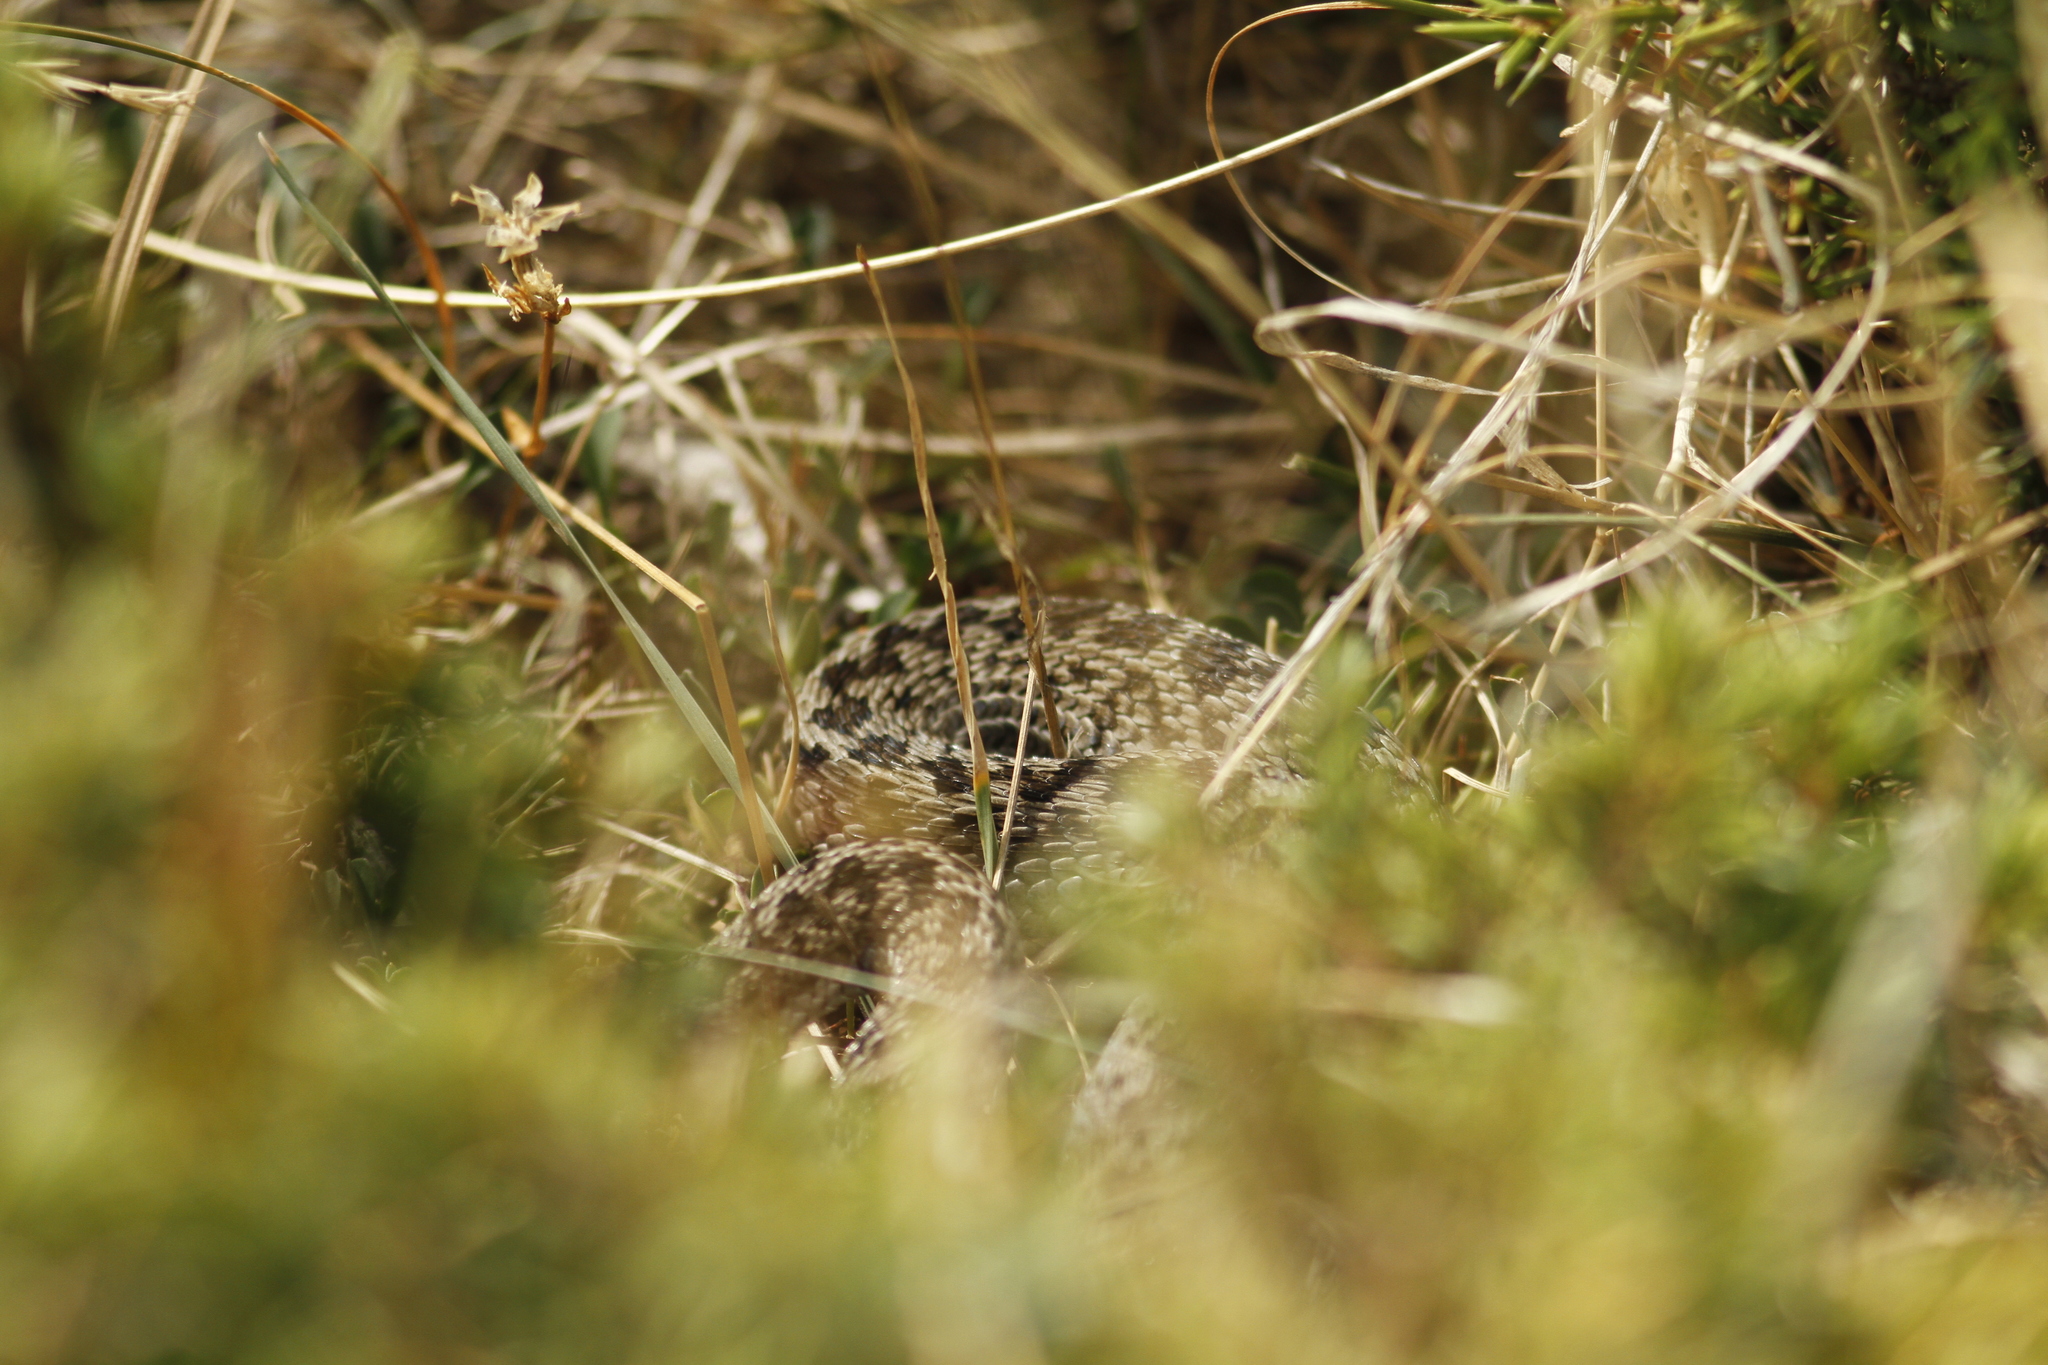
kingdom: Animalia
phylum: Chordata
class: Squamata
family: Viperidae
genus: Vipera
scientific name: Vipera ursinii
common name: Meadow viper
